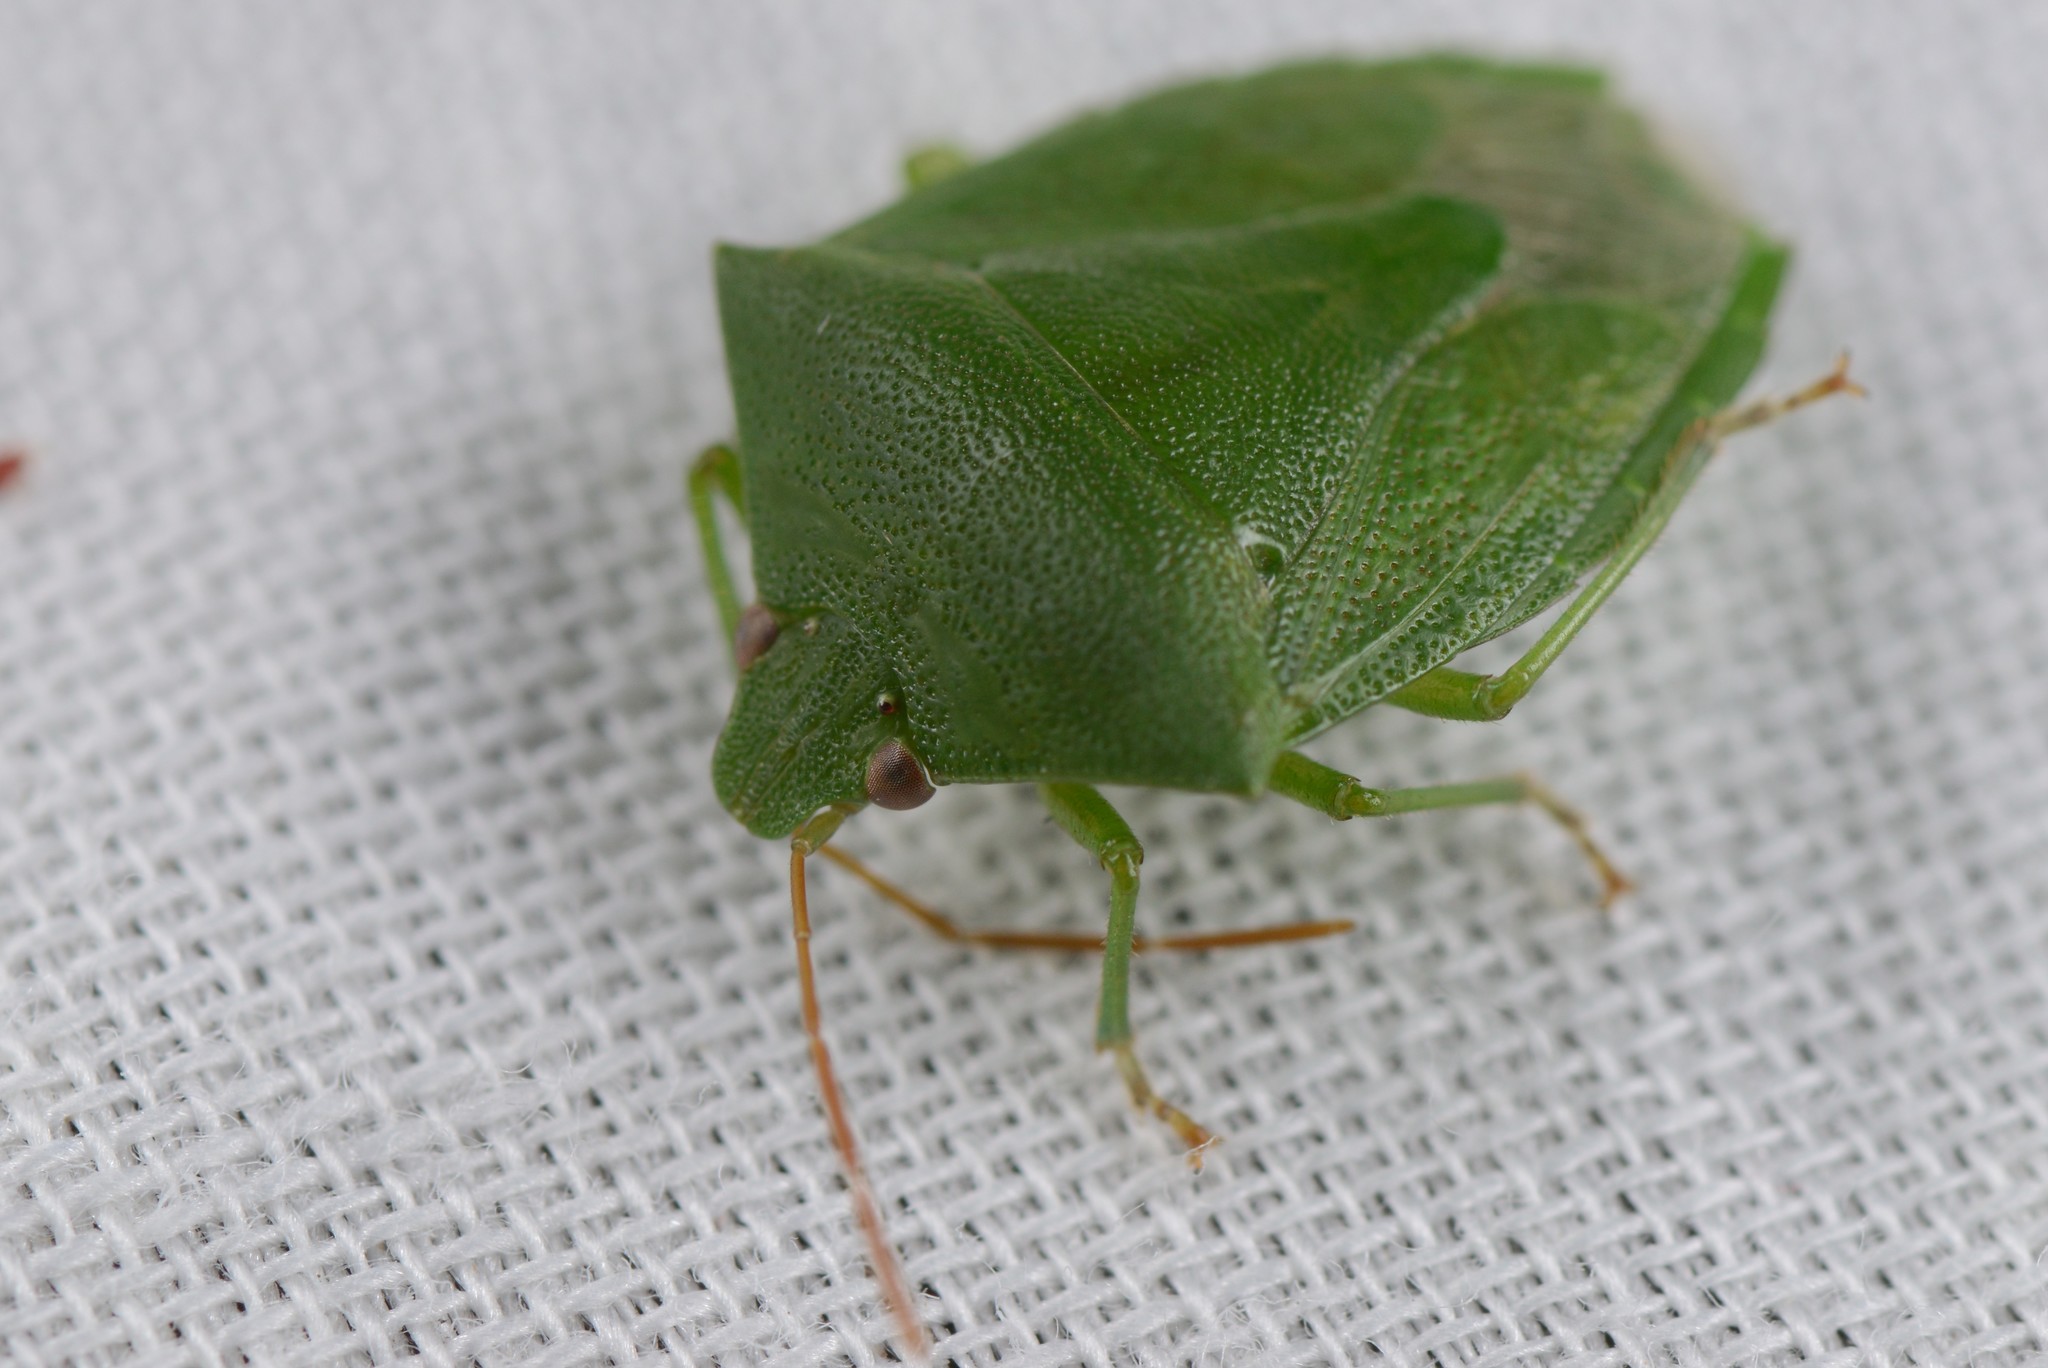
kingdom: Animalia
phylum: Arthropoda
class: Insecta
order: Hemiptera
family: Pentatomidae
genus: Cuspicona
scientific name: Cuspicona simplex
